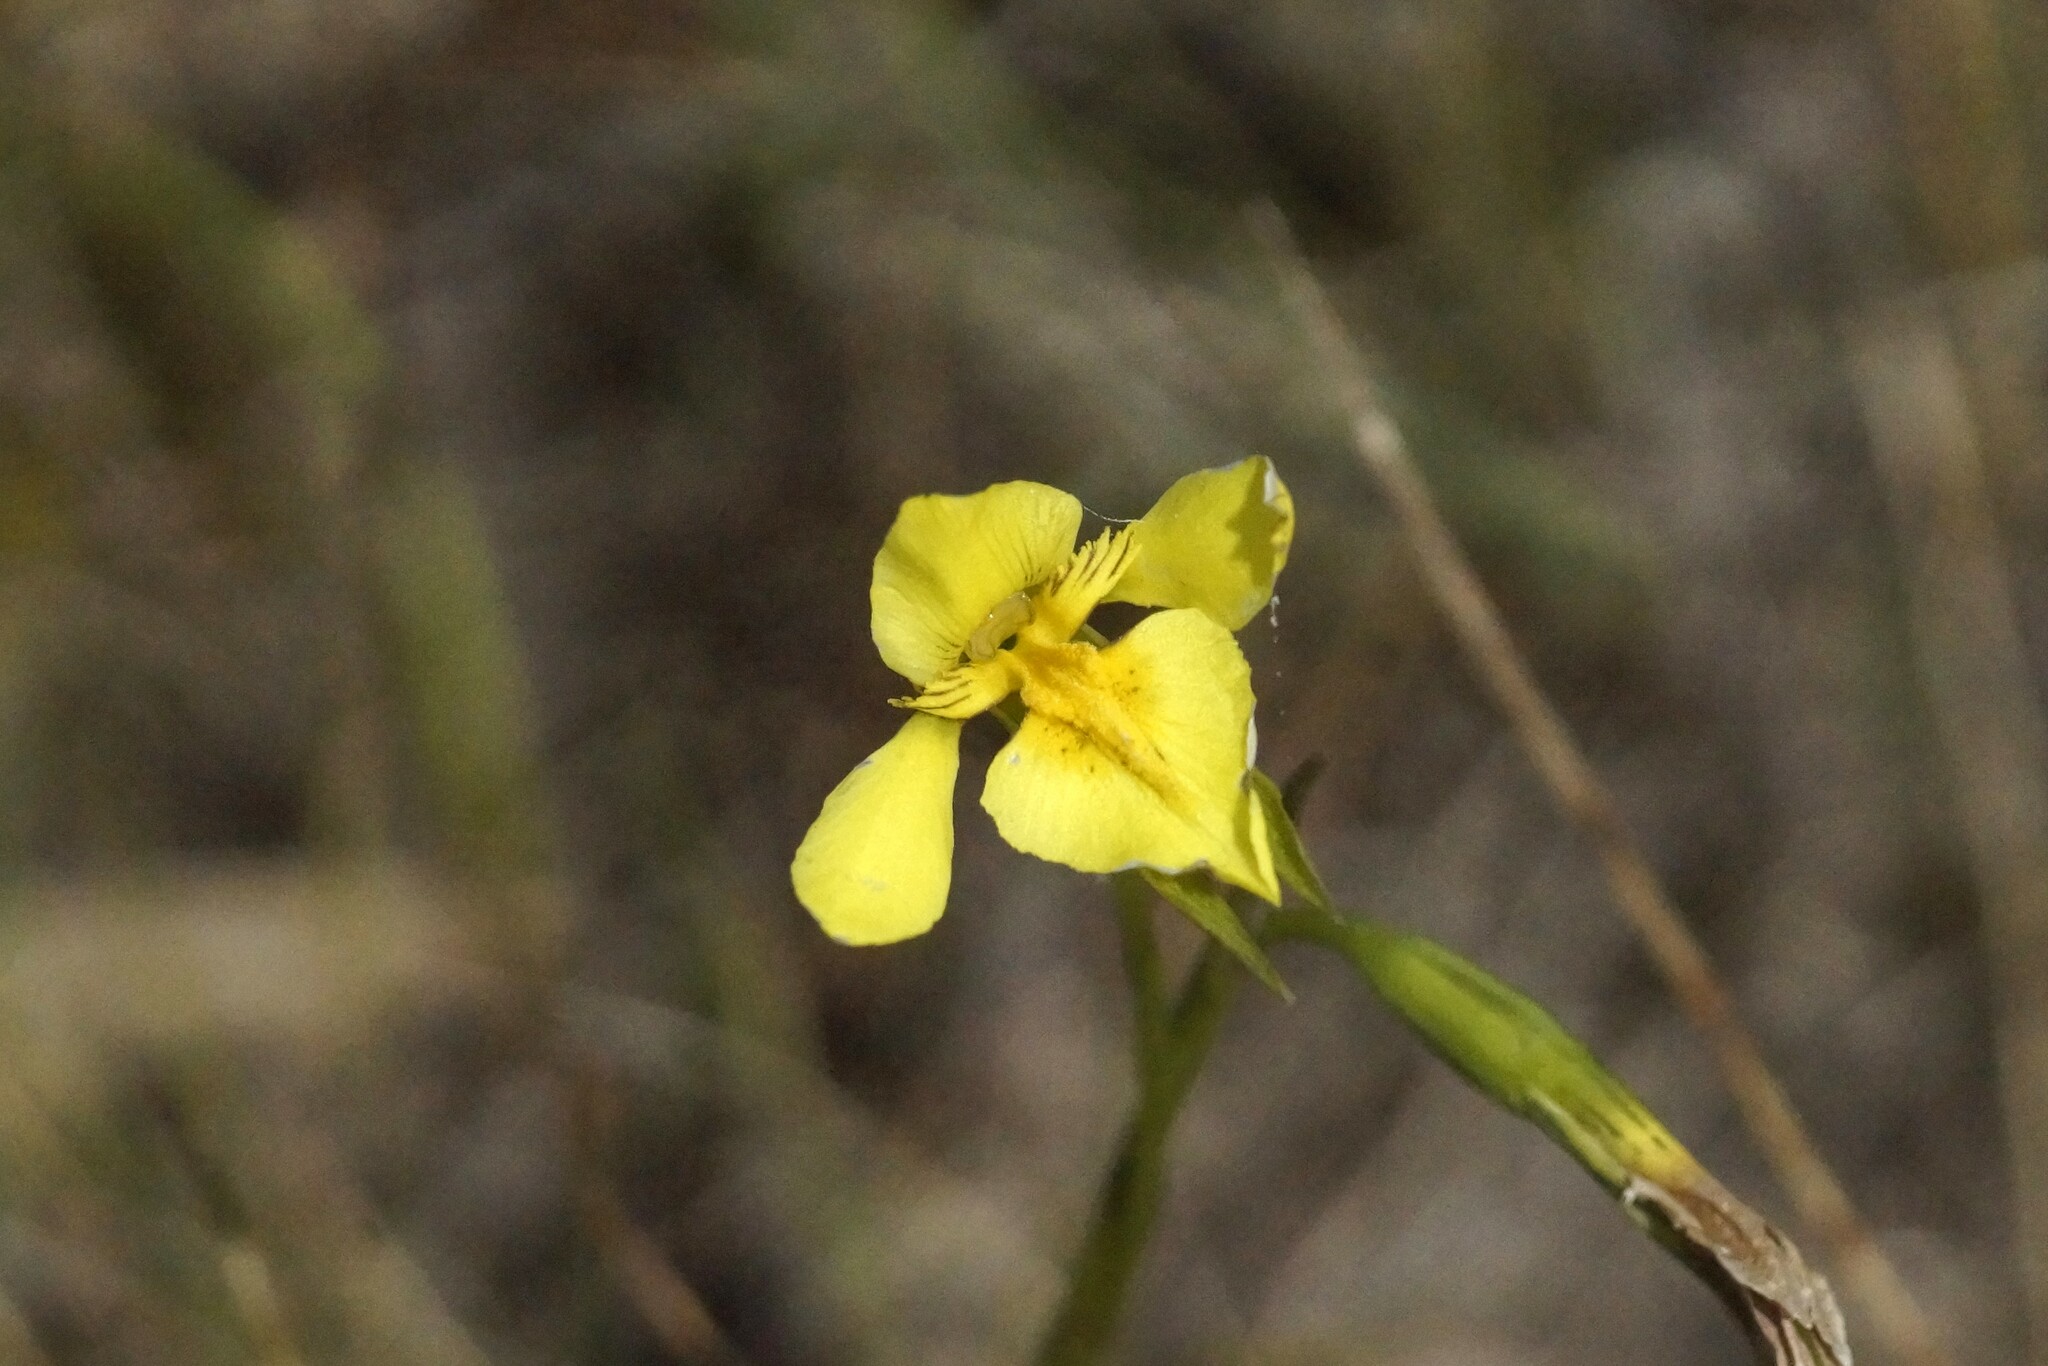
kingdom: Plantae
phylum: Tracheophyta
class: Liliopsida
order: Asparagales
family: Orchidaceae
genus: Diuris
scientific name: Diuris chryseopsis
